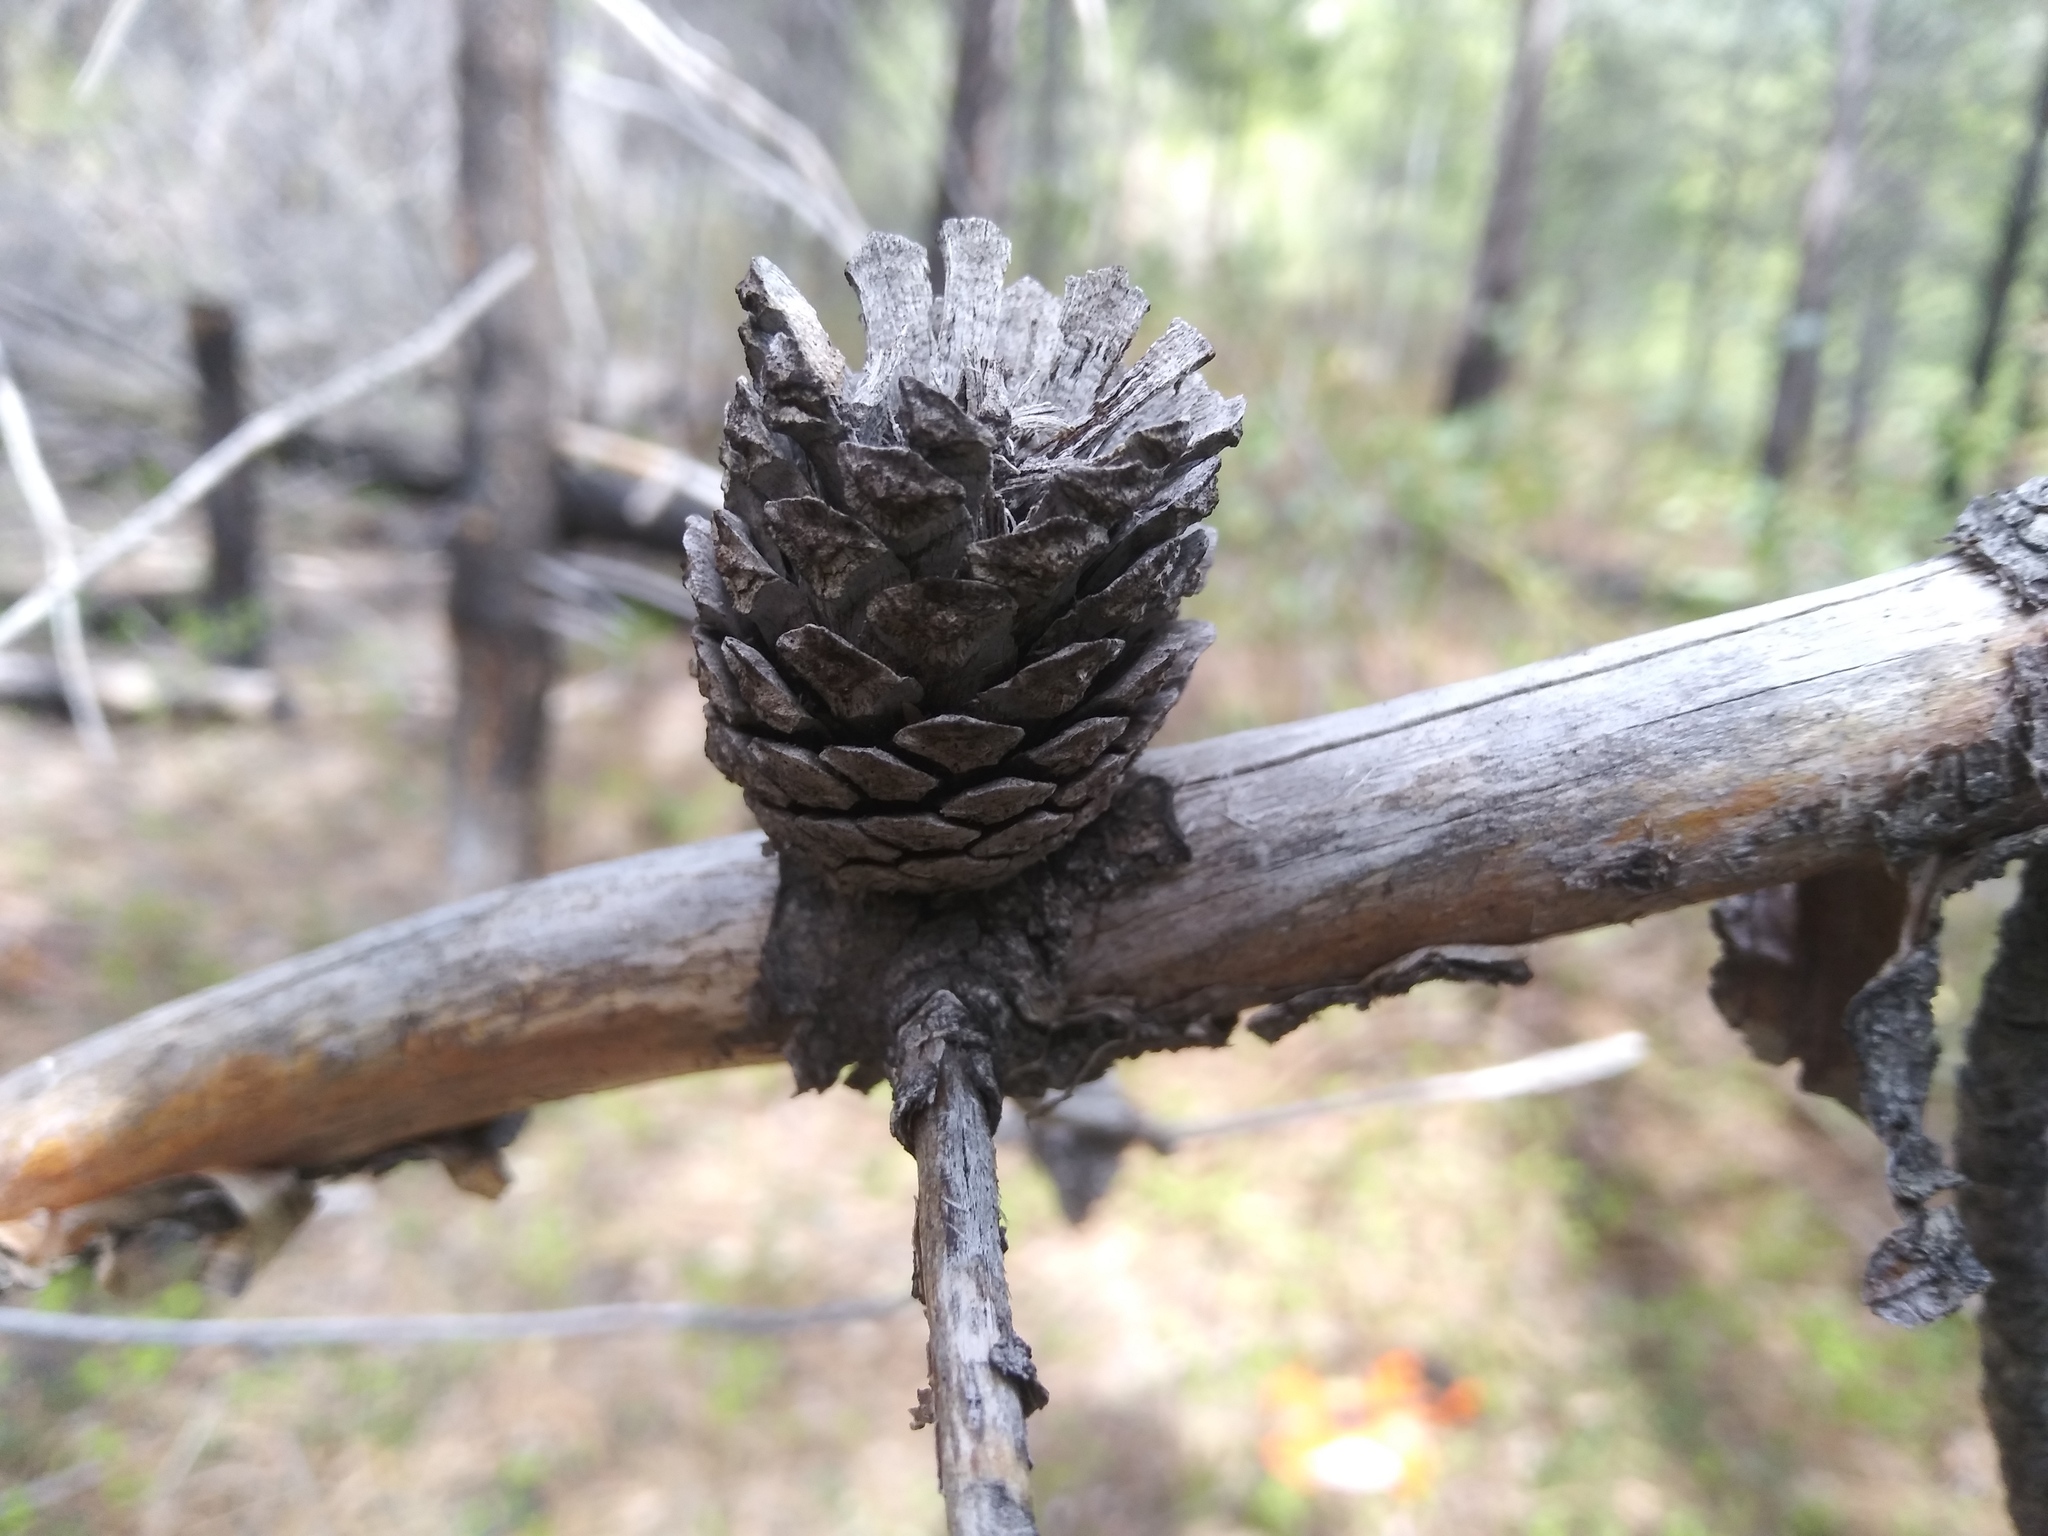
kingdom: Plantae
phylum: Tracheophyta
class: Pinopsida
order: Pinales
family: Pinaceae
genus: Pinus
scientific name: Pinus contorta
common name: Lodgepole pine
